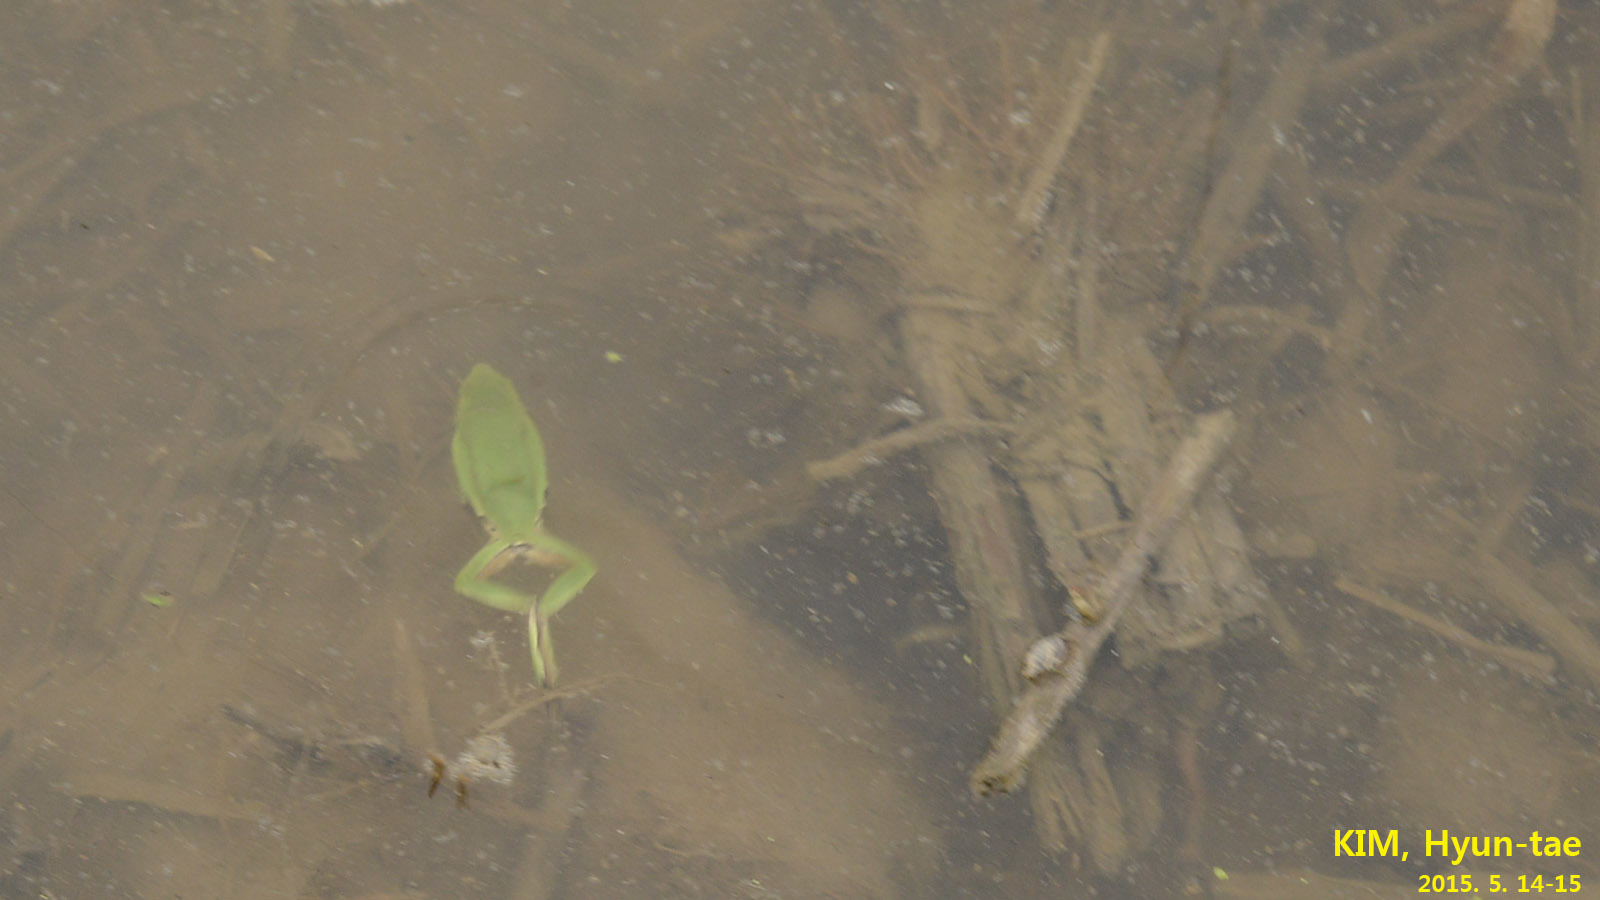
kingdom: Animalia
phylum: Chordata
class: Amphibia
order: Anura
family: Hylidae
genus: Dryophytes
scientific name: Dryophytes immaculatus
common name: North china treefrog
